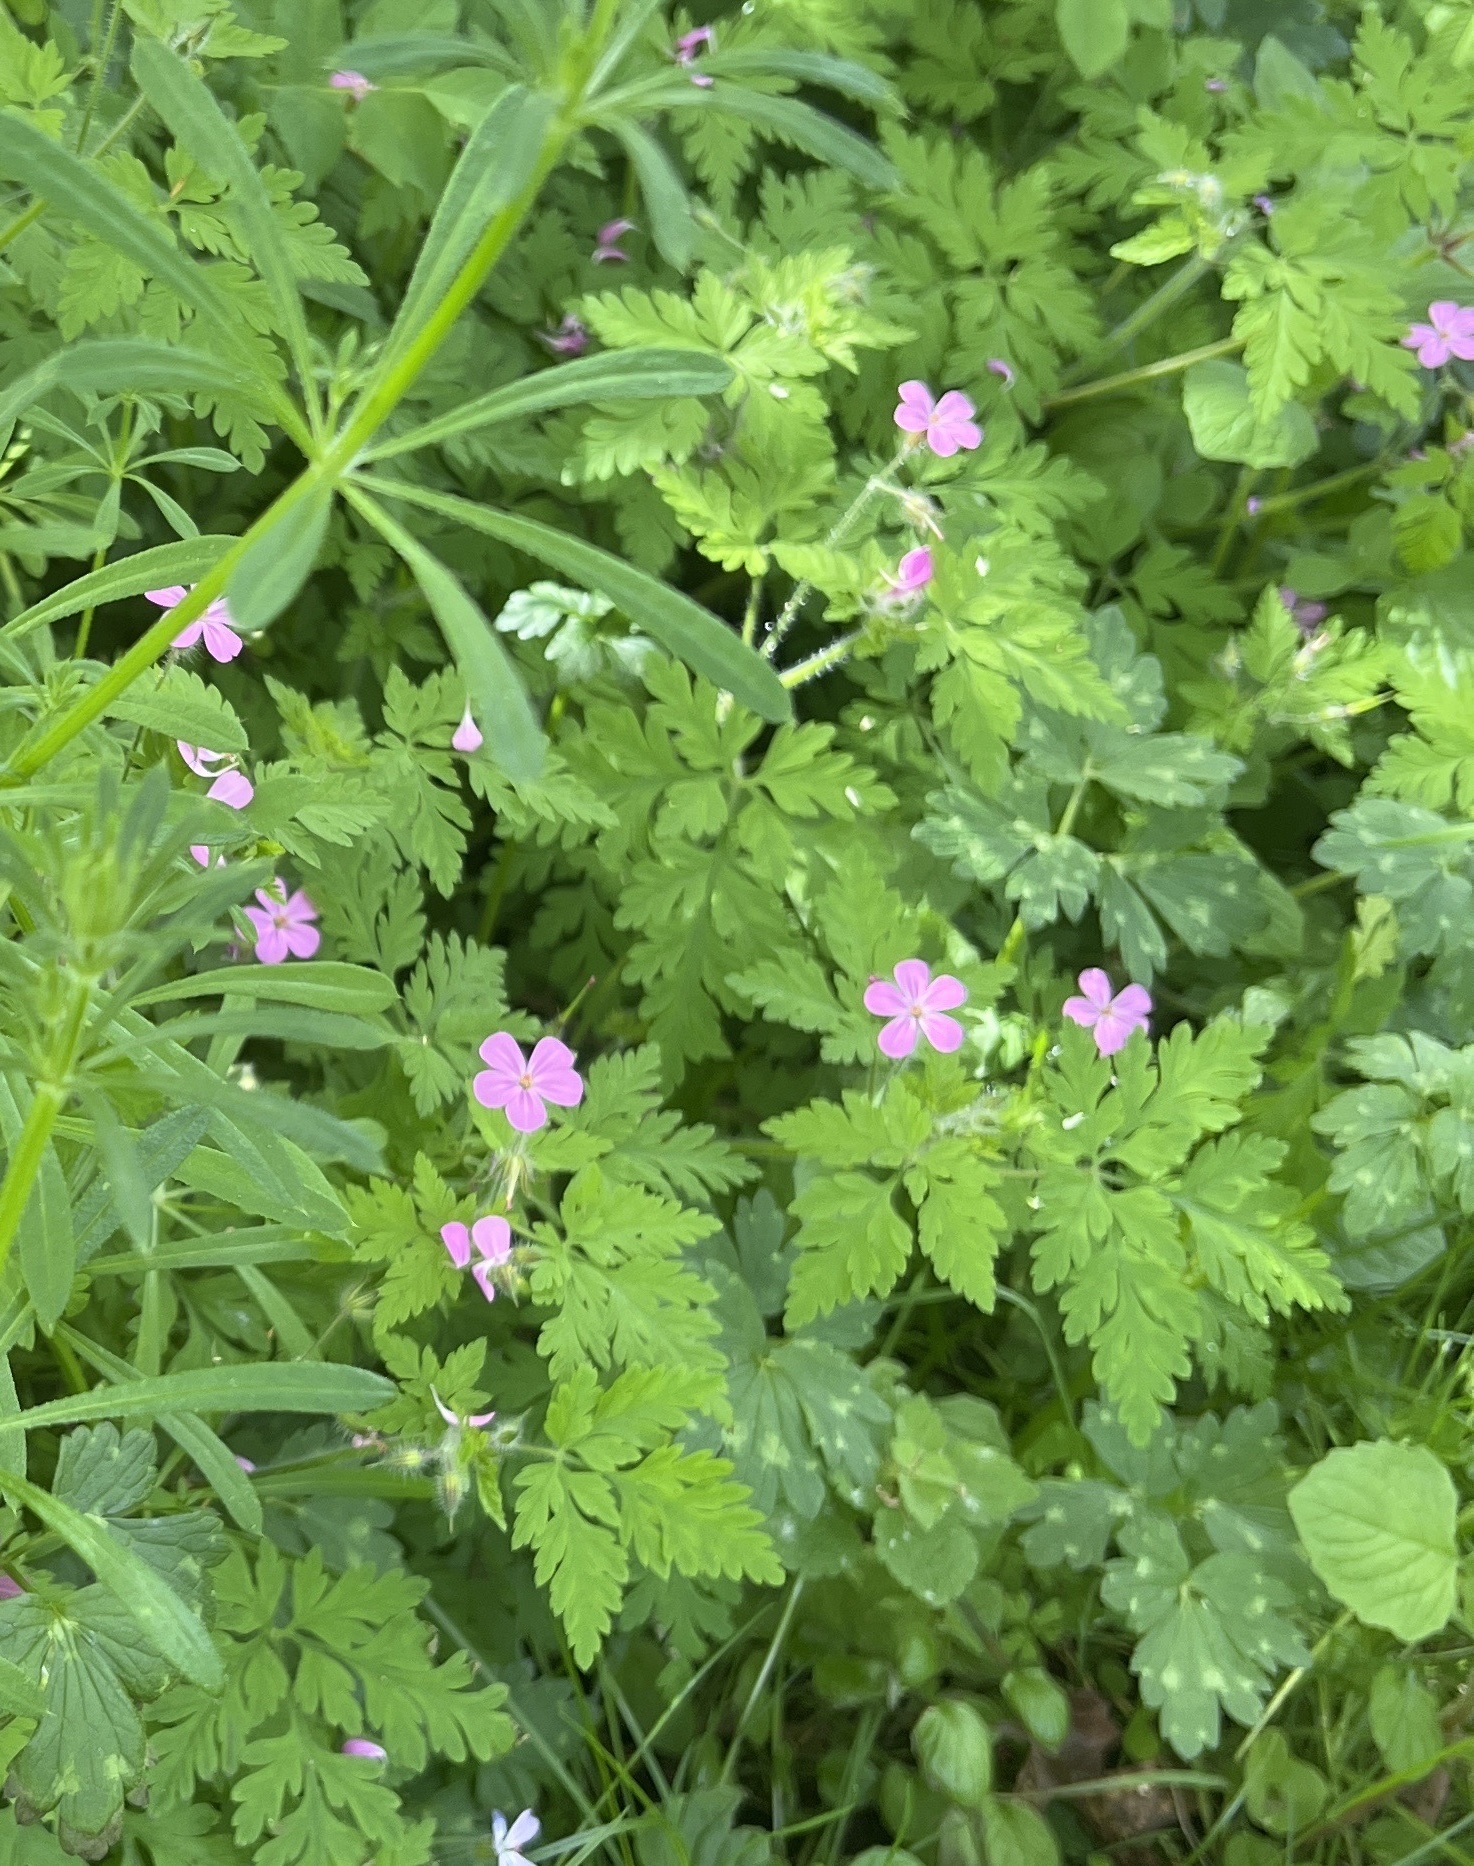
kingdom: Plantae
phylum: Tracheophyta
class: Magnoliopsida
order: Geraniales
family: Geraniaceae
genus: Geranium
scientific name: Geranium robertianum
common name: Herb-robert
